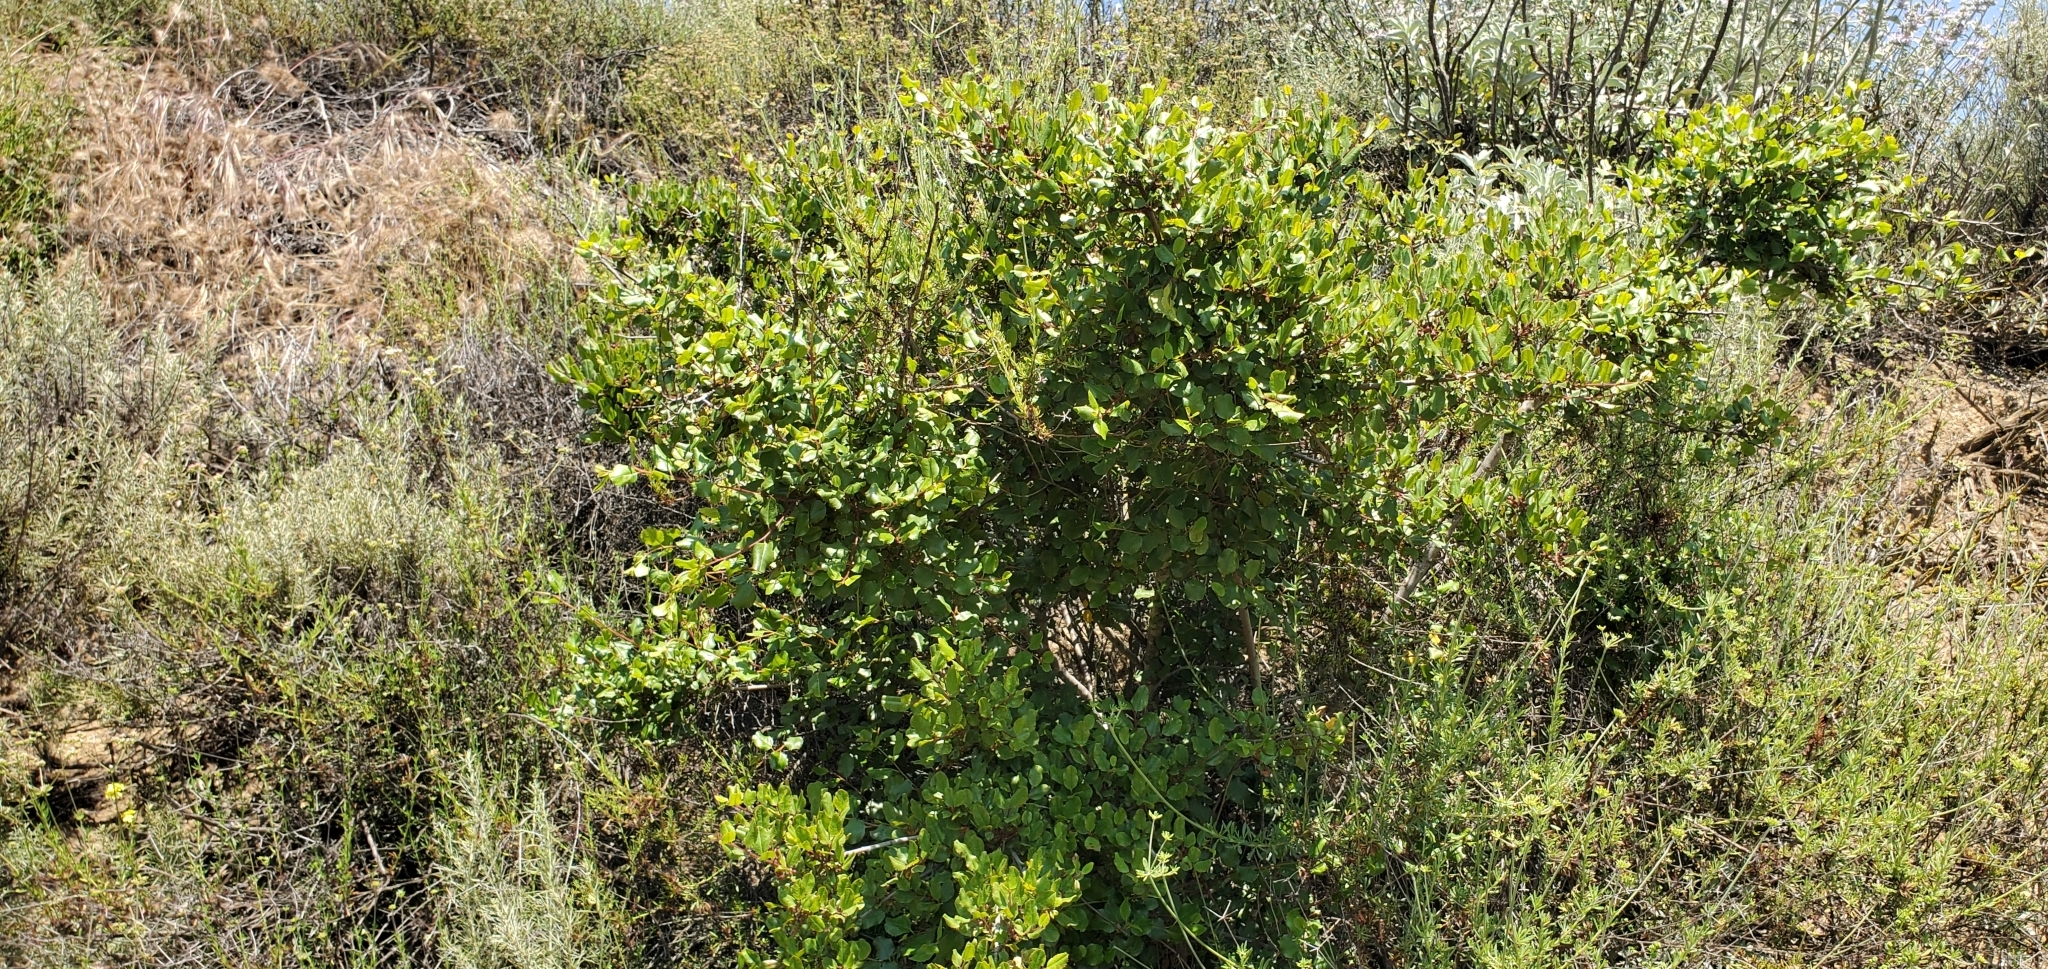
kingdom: Plantae
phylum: Tracheophyta
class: Magnoliopsida
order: Rosales
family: Rhamnaceae
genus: Endotropis
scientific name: Endotropis crocea
